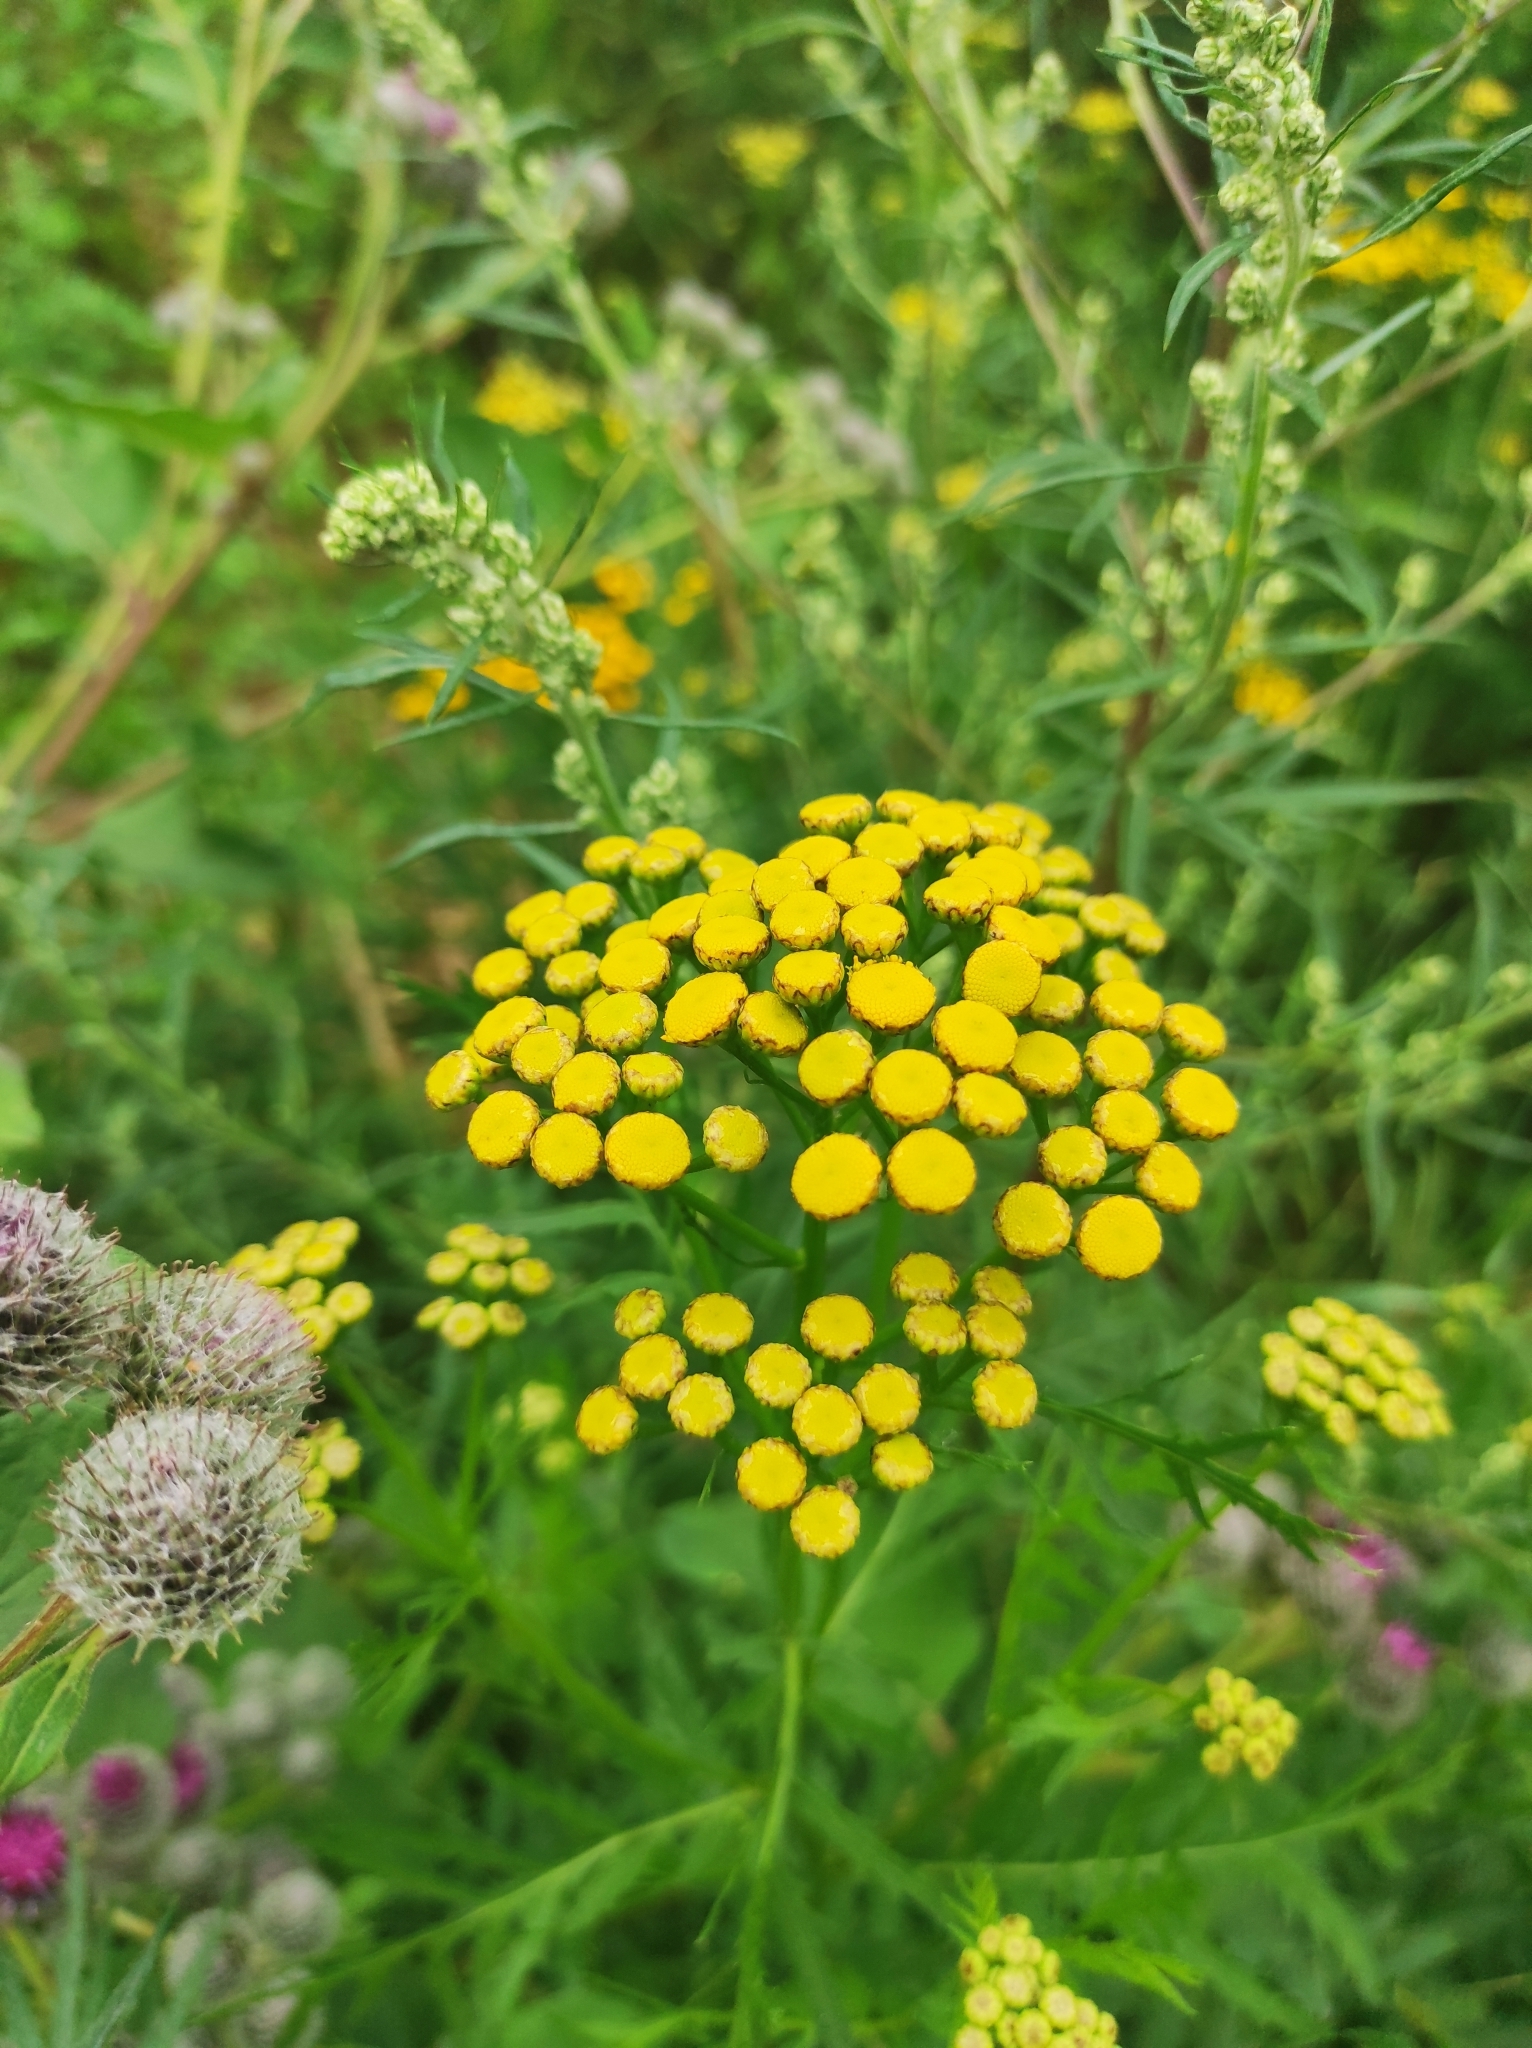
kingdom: Plantae
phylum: Tracheophyta
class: Magnoliopsida
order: Asterales
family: Asteraceae
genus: Tanacetum
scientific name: Tanacetum vulgare
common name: Common tansy
